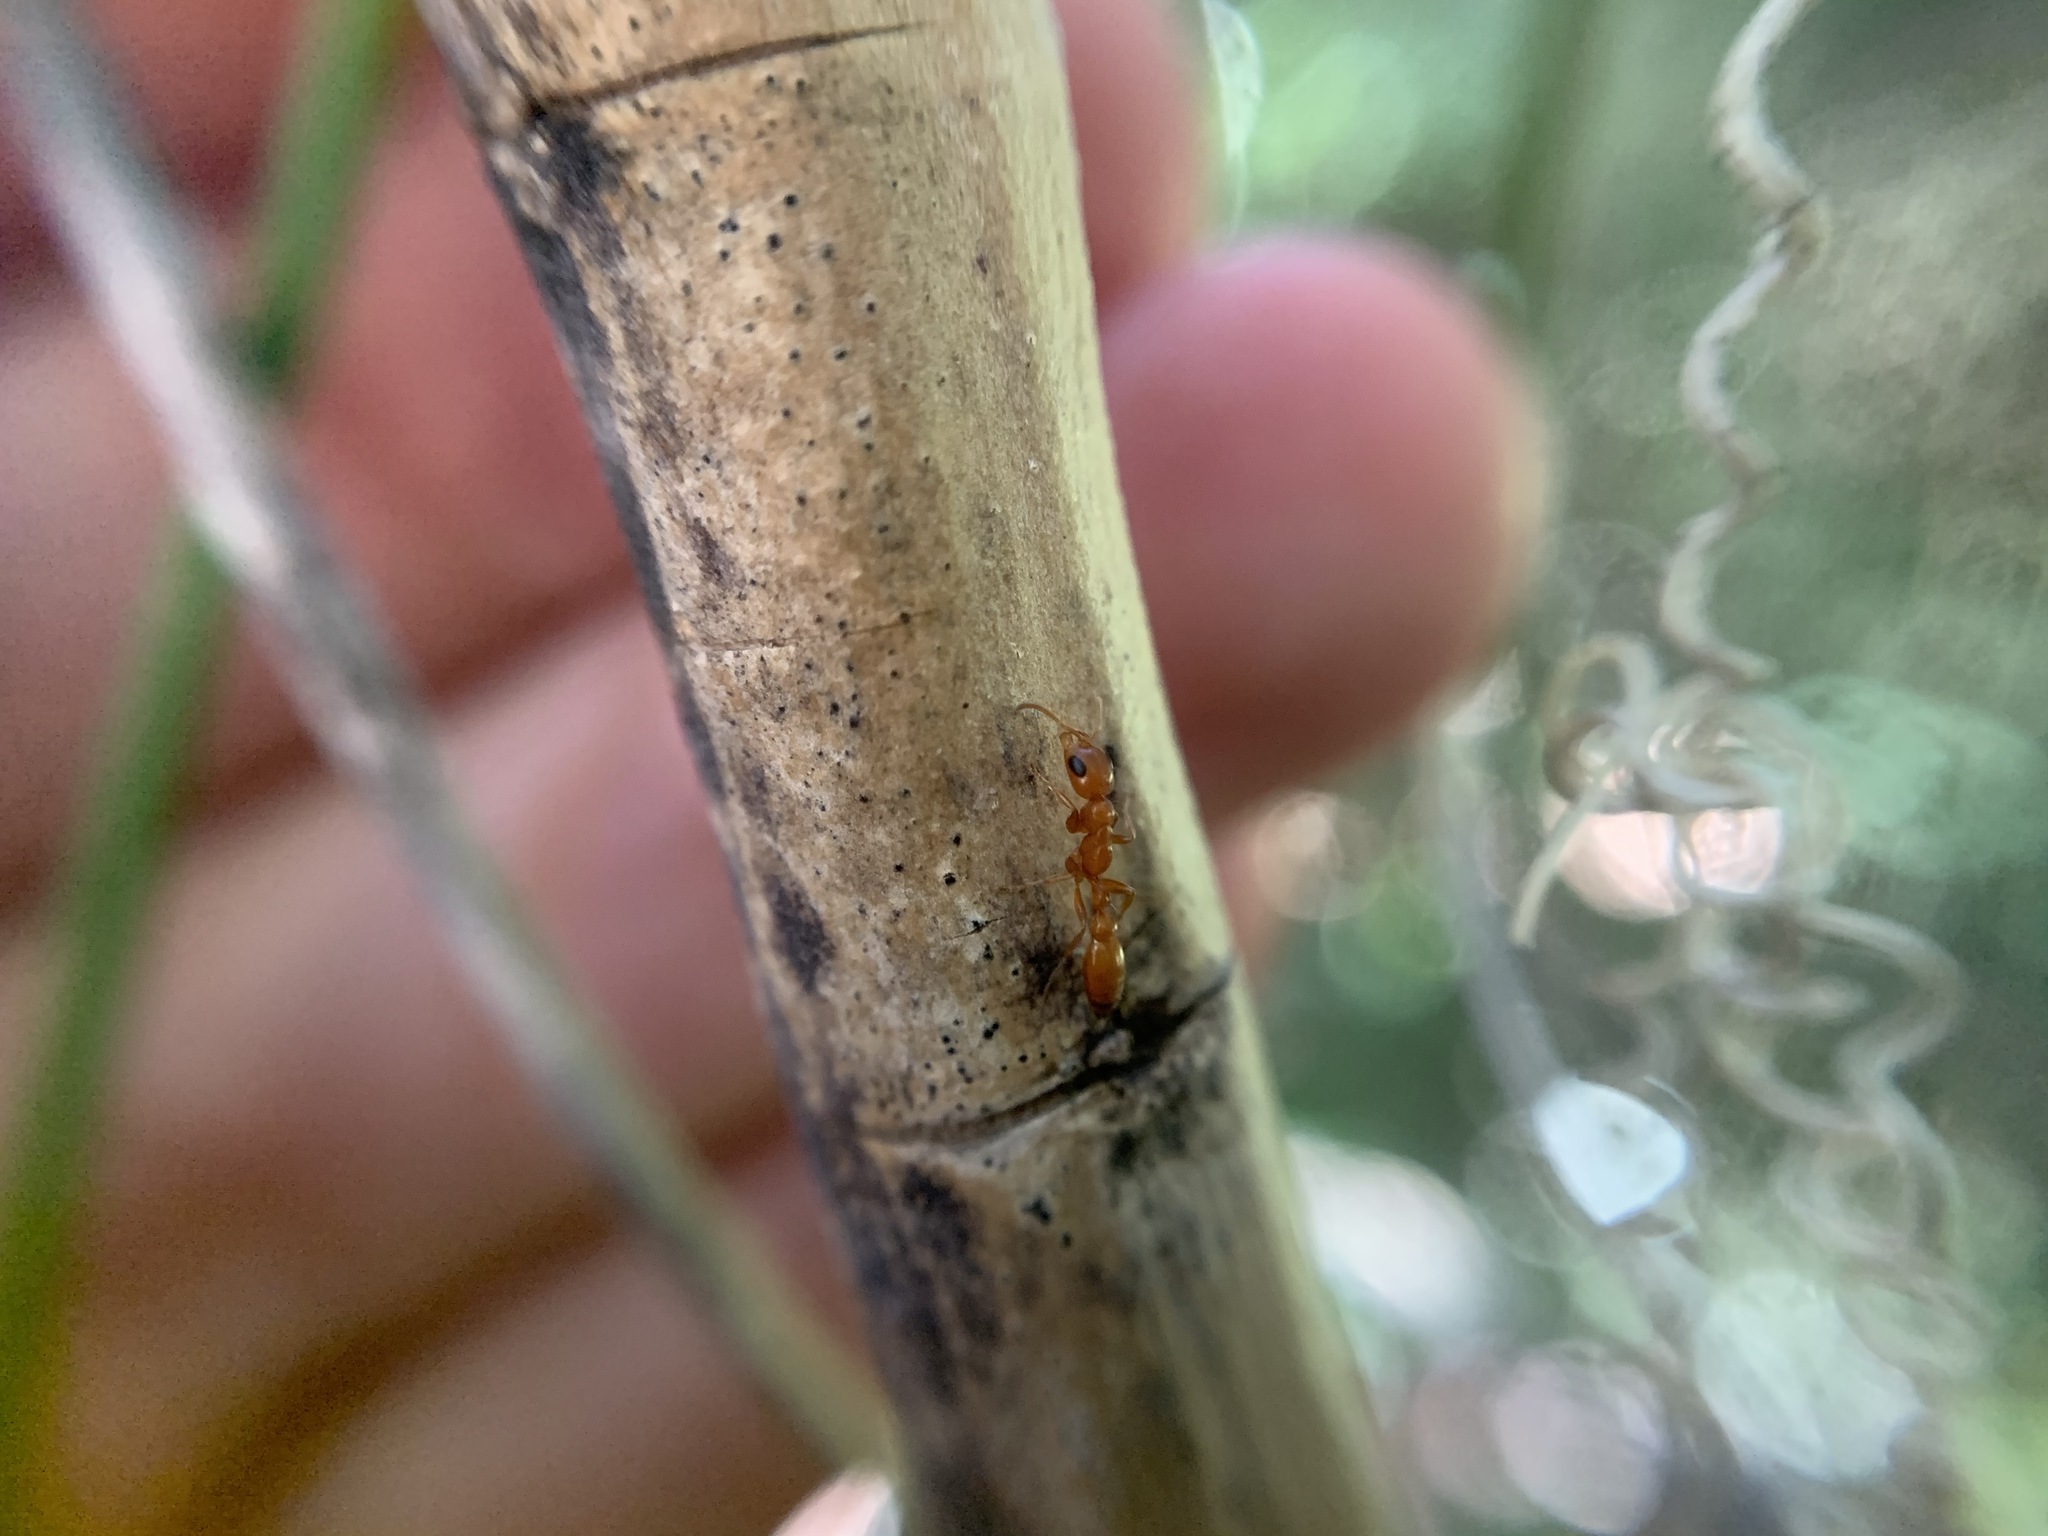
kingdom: Animalia
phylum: Arthropoda
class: Insecta
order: Hymenoptera
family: Formicidae
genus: Pseudomyrmex
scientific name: Pseudomyrmex apache
